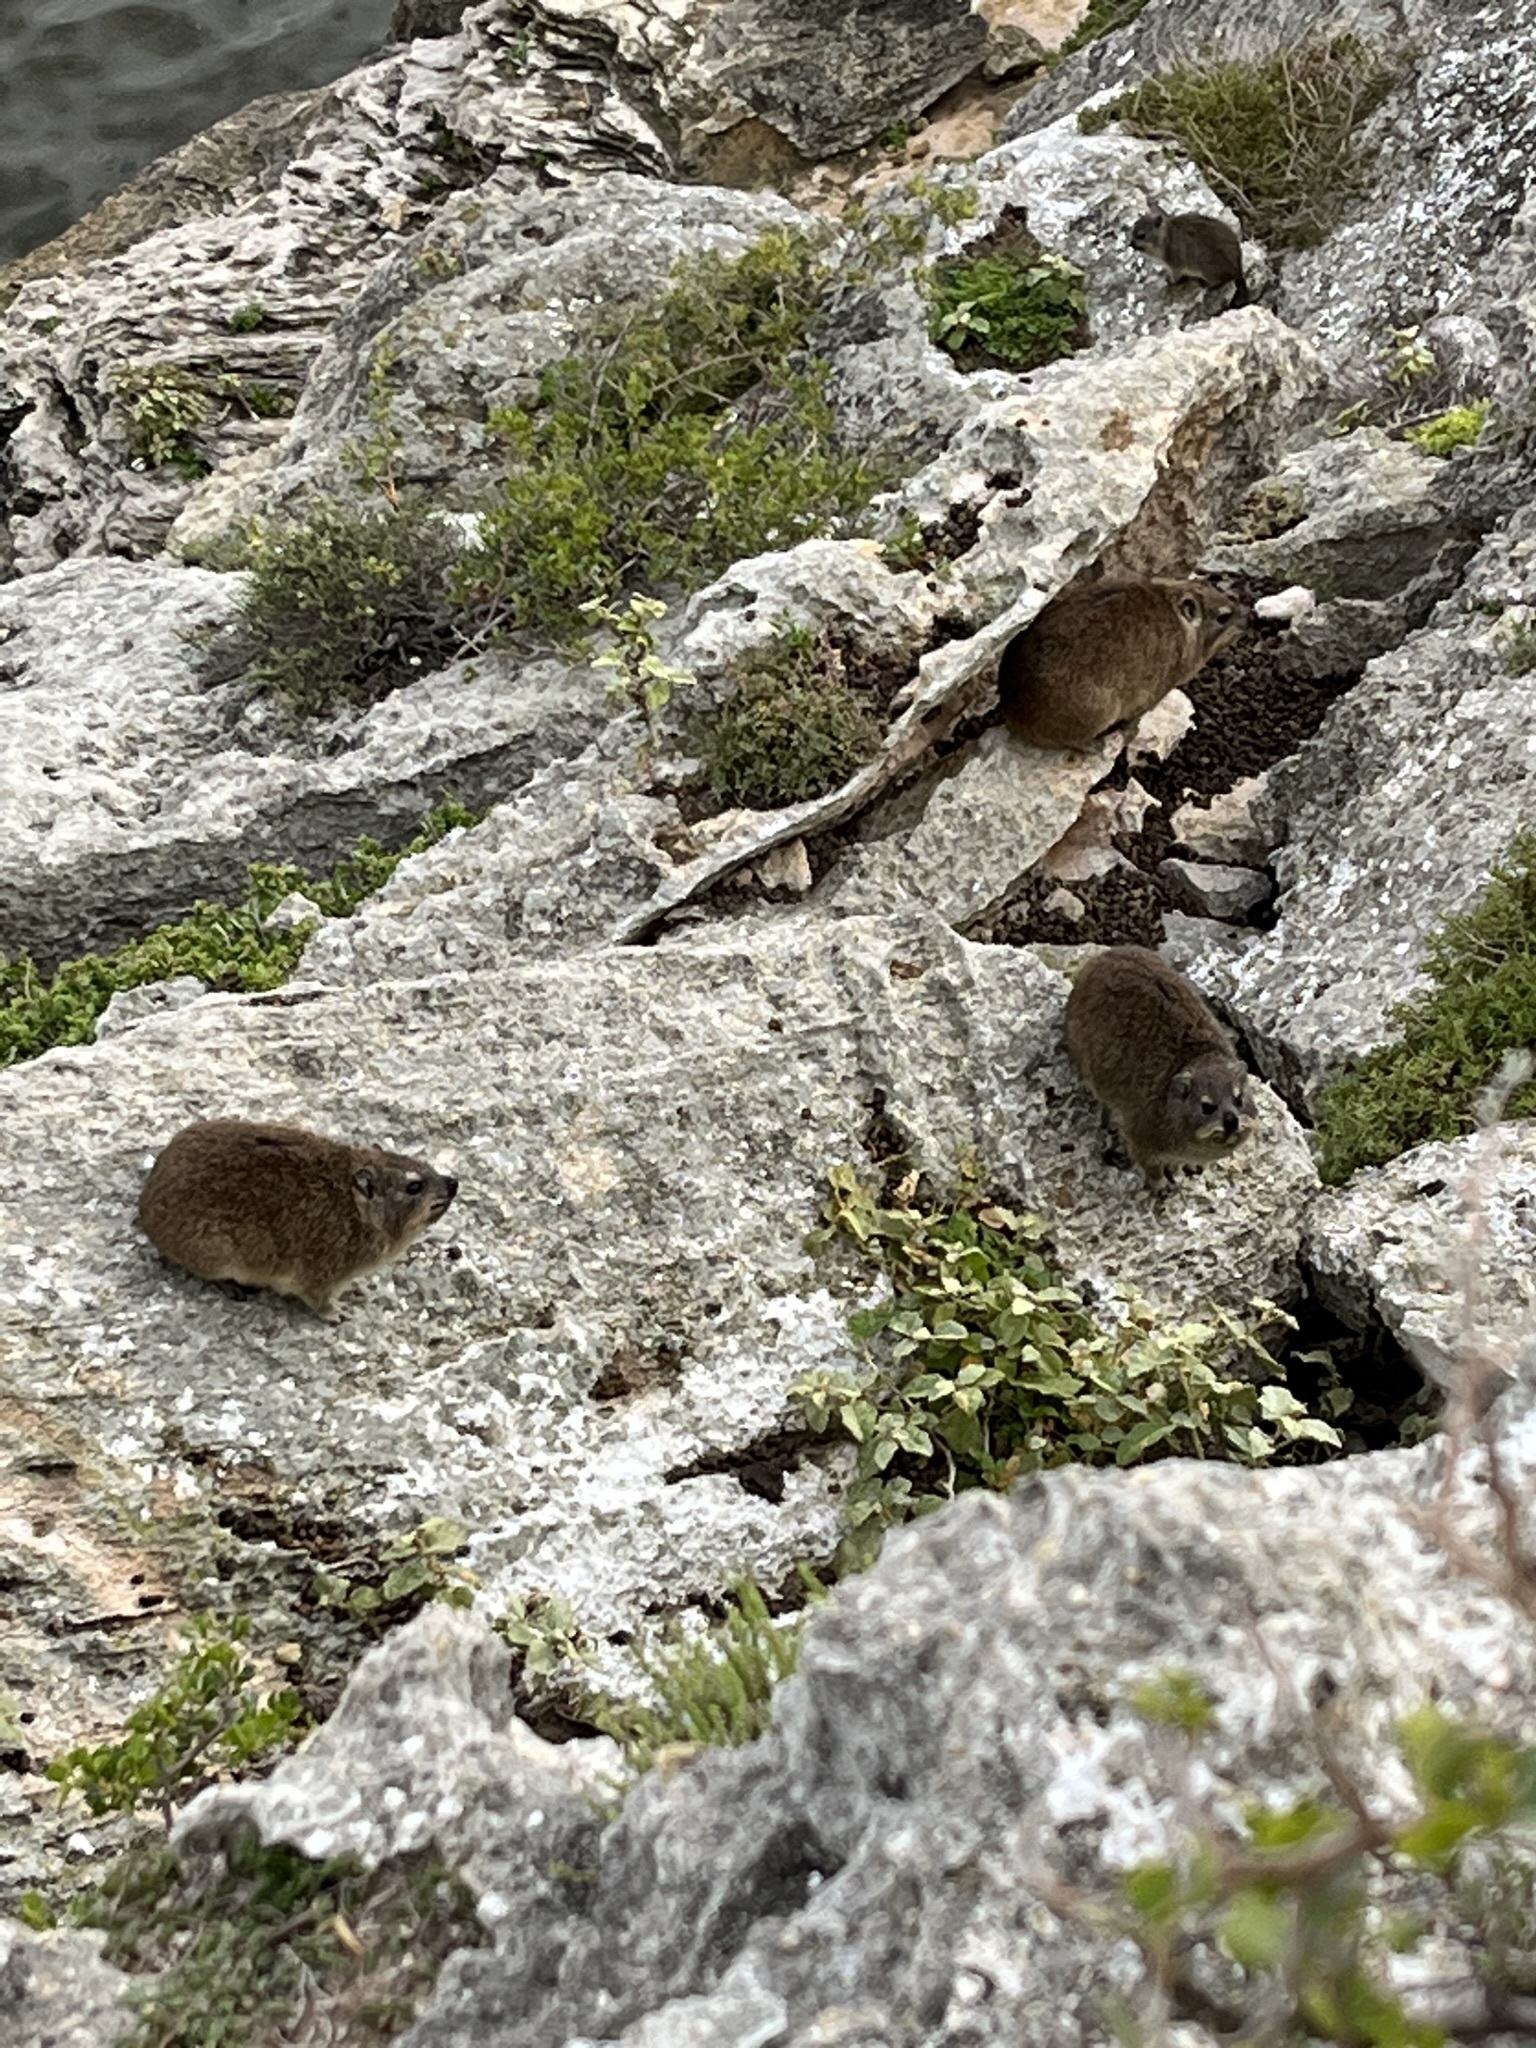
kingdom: Animalia
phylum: Chordata
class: Mammalia
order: Hyracoidea
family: Procaviidae
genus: Procavia
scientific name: Procavia capensis
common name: Rock hyrax
